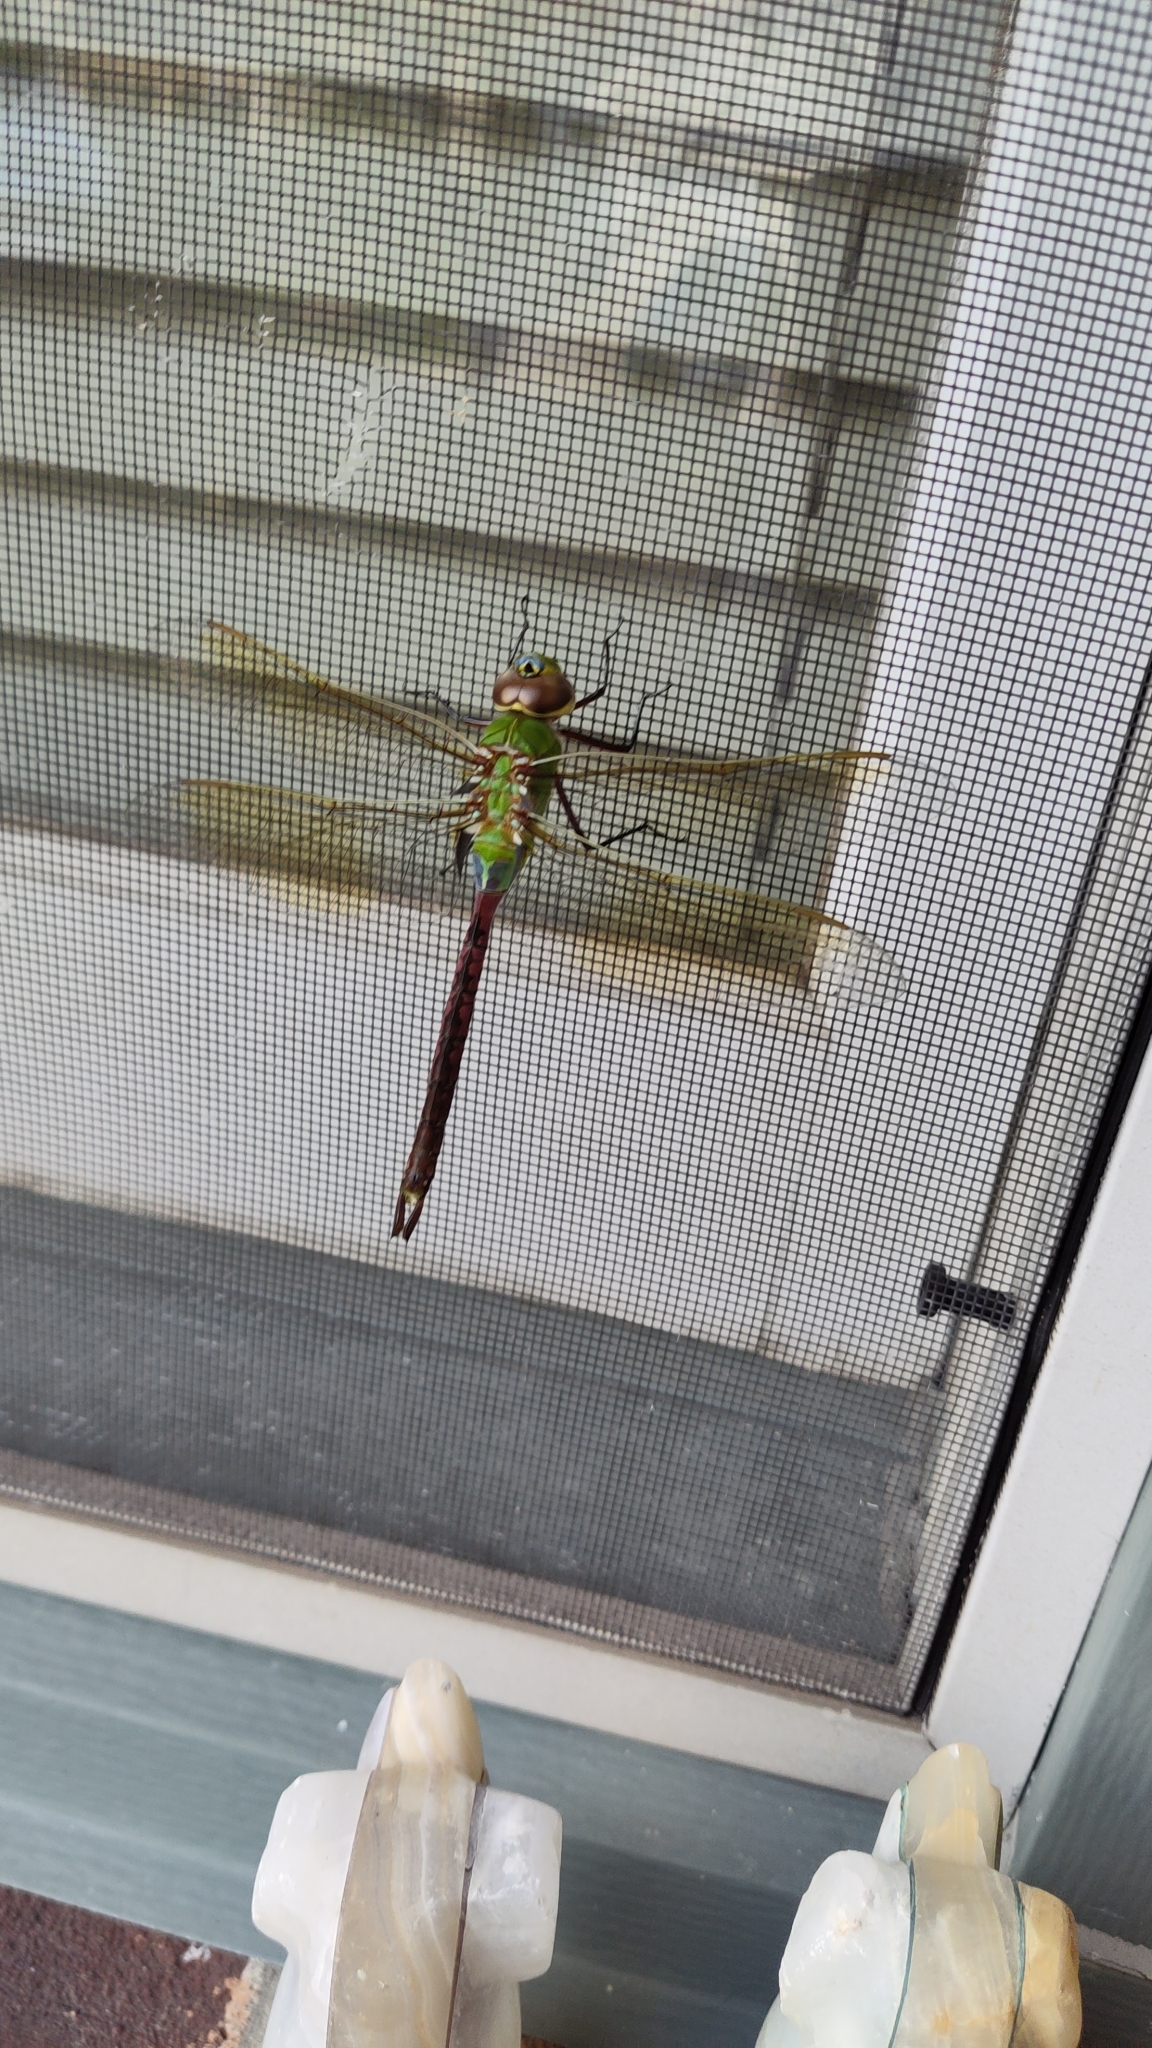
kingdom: Animalia
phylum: Arthropoda
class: Insecta
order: Odonata
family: Aeshnidae
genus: Anax
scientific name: Anax junius
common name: Common green darner
